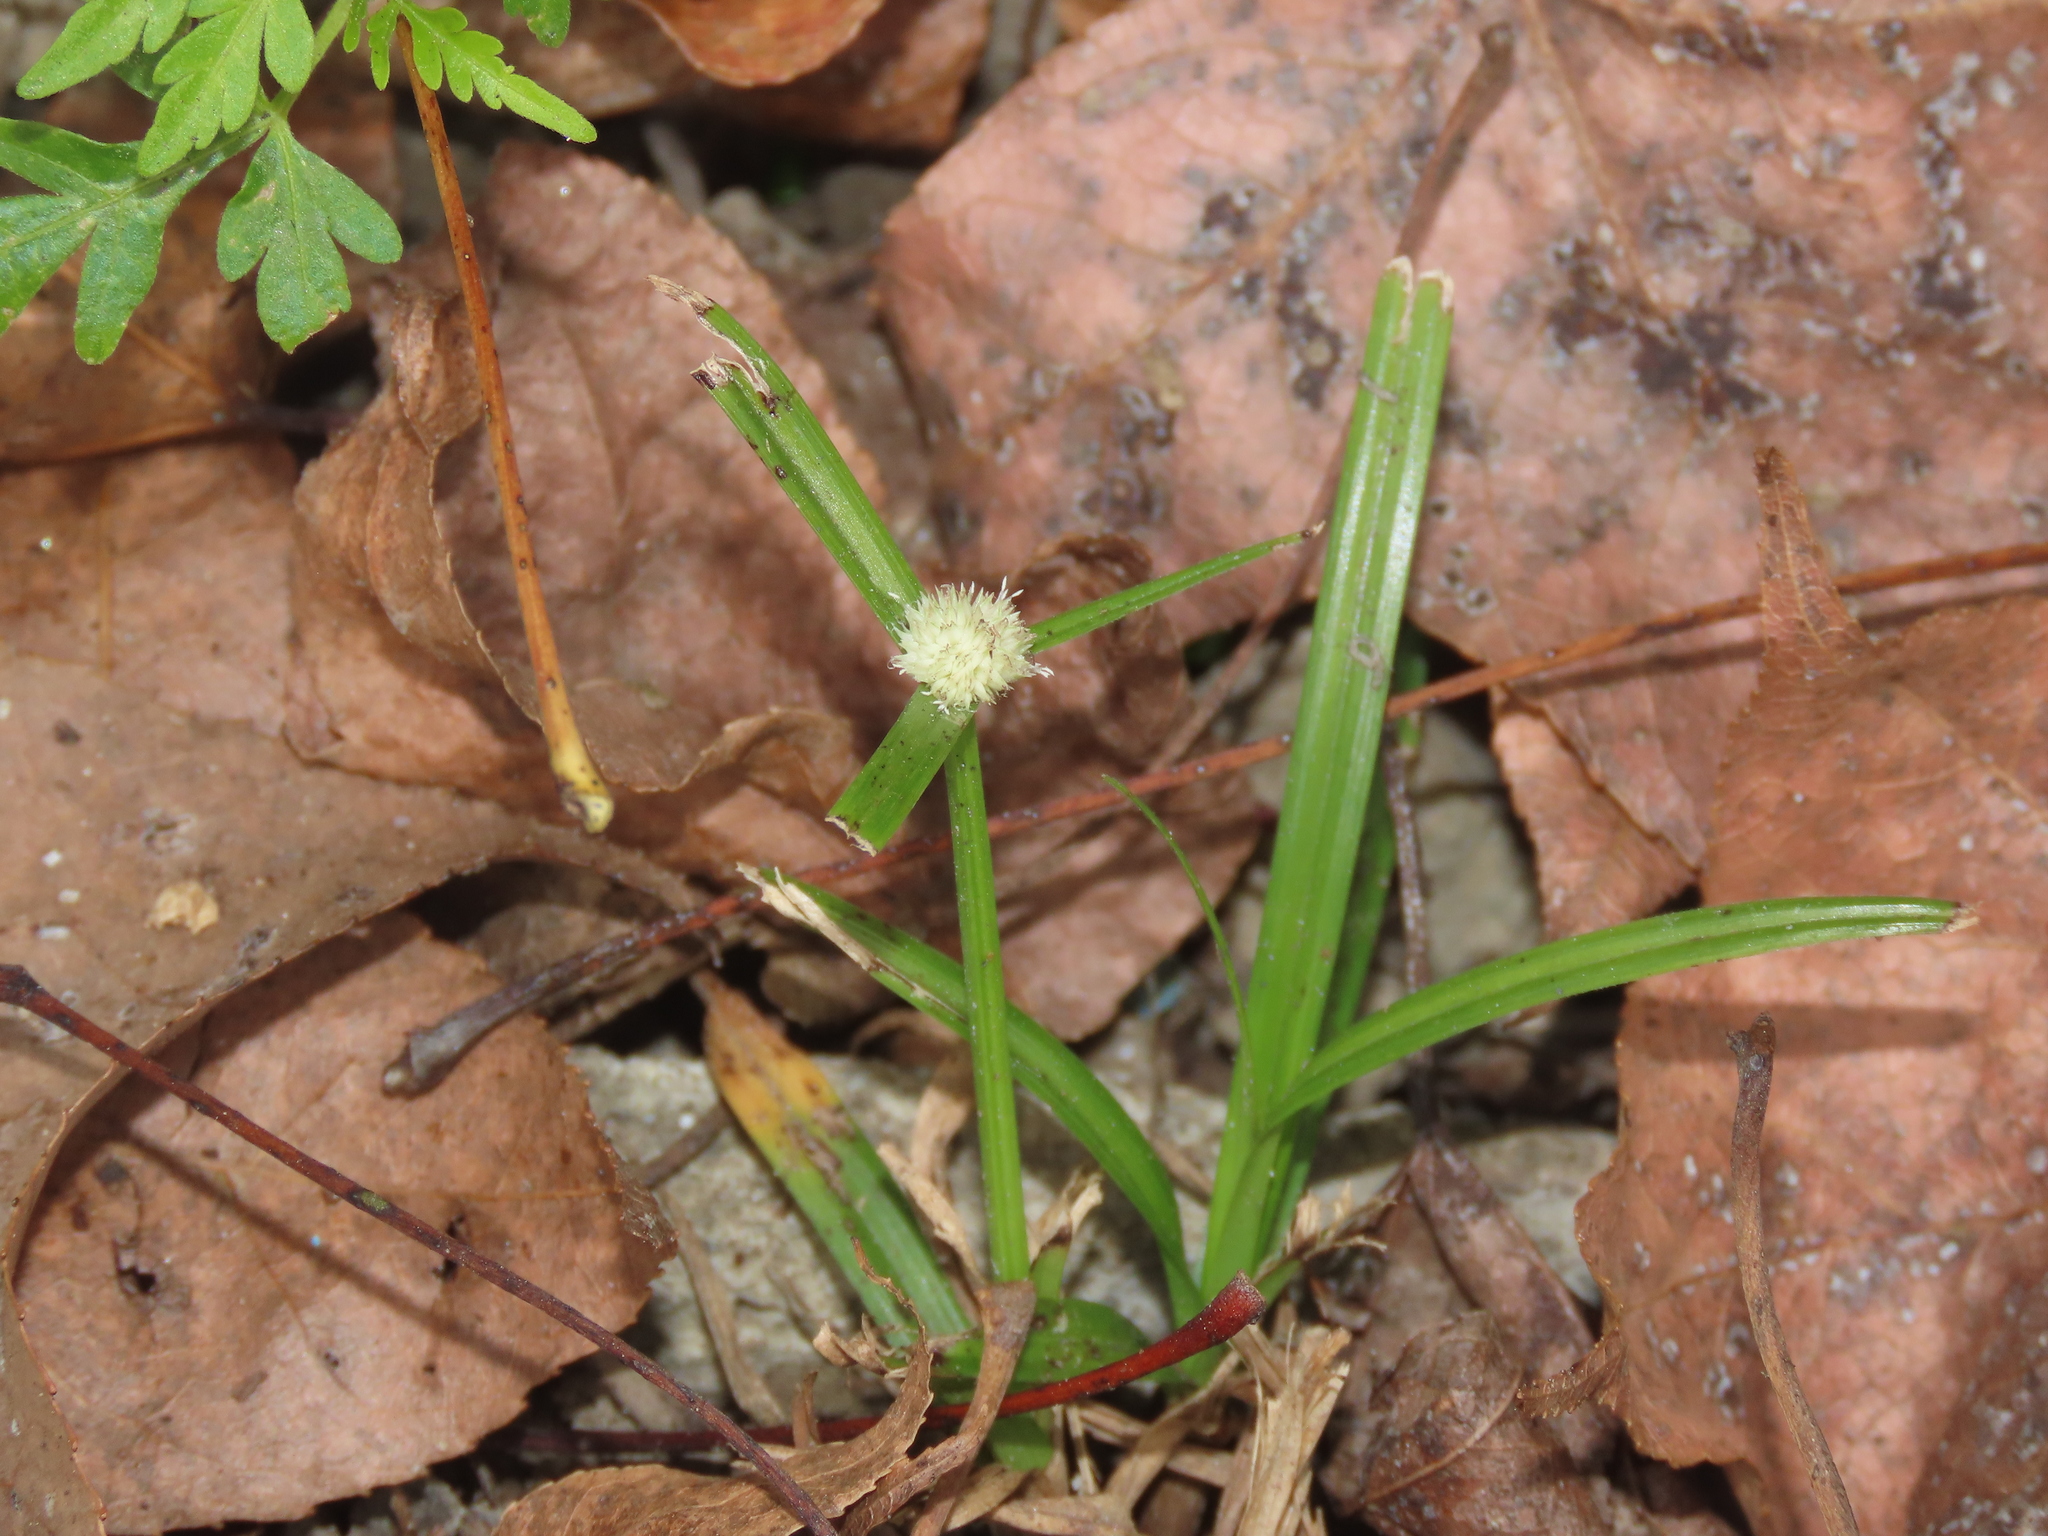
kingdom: Plantae
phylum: Tracheophyta
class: Liliopsida
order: Poales
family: Cyperaceae
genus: Cyperus
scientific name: Cyperus mindorensis
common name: Flatsedge
